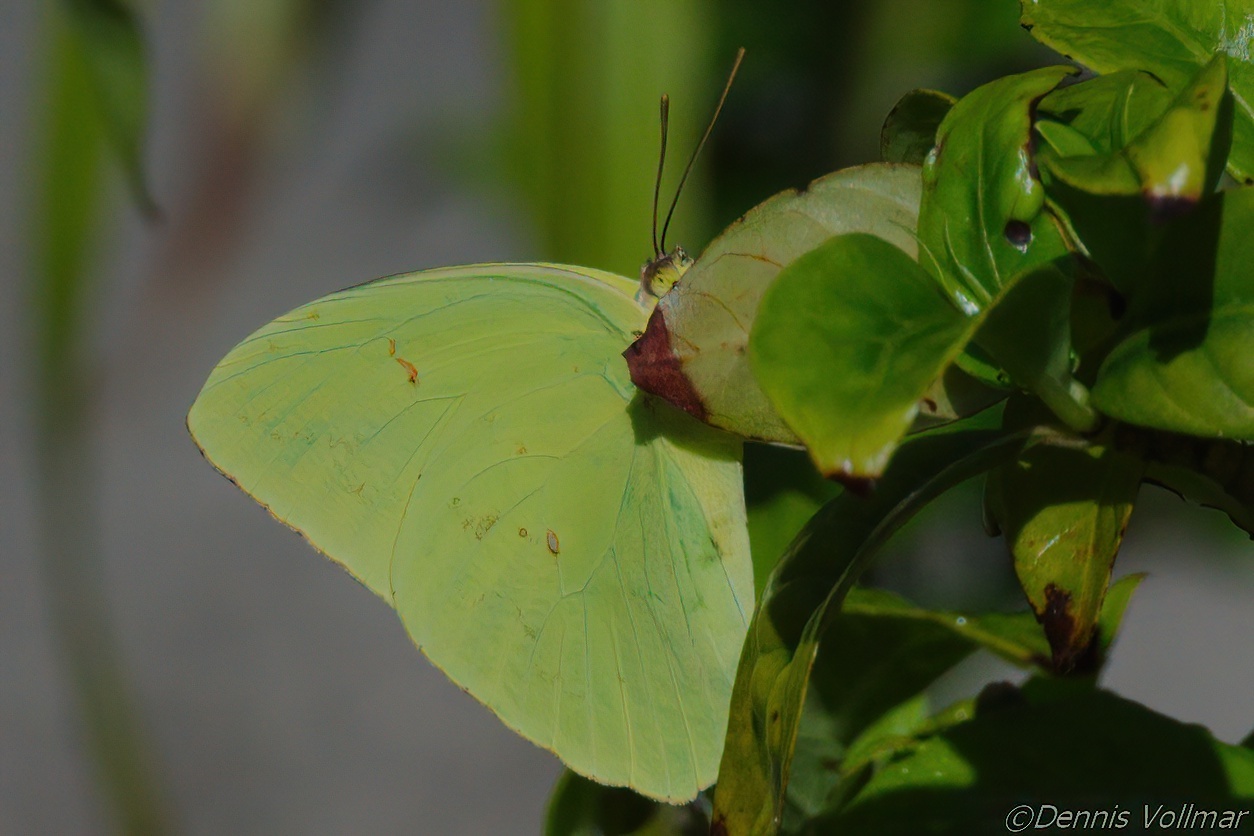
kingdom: Animalia
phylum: Arthropoda
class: Insecta
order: Lepidoptera
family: Pieridae
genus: Phoebis
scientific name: Phoebis sennae
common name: Cloudless sulphur
